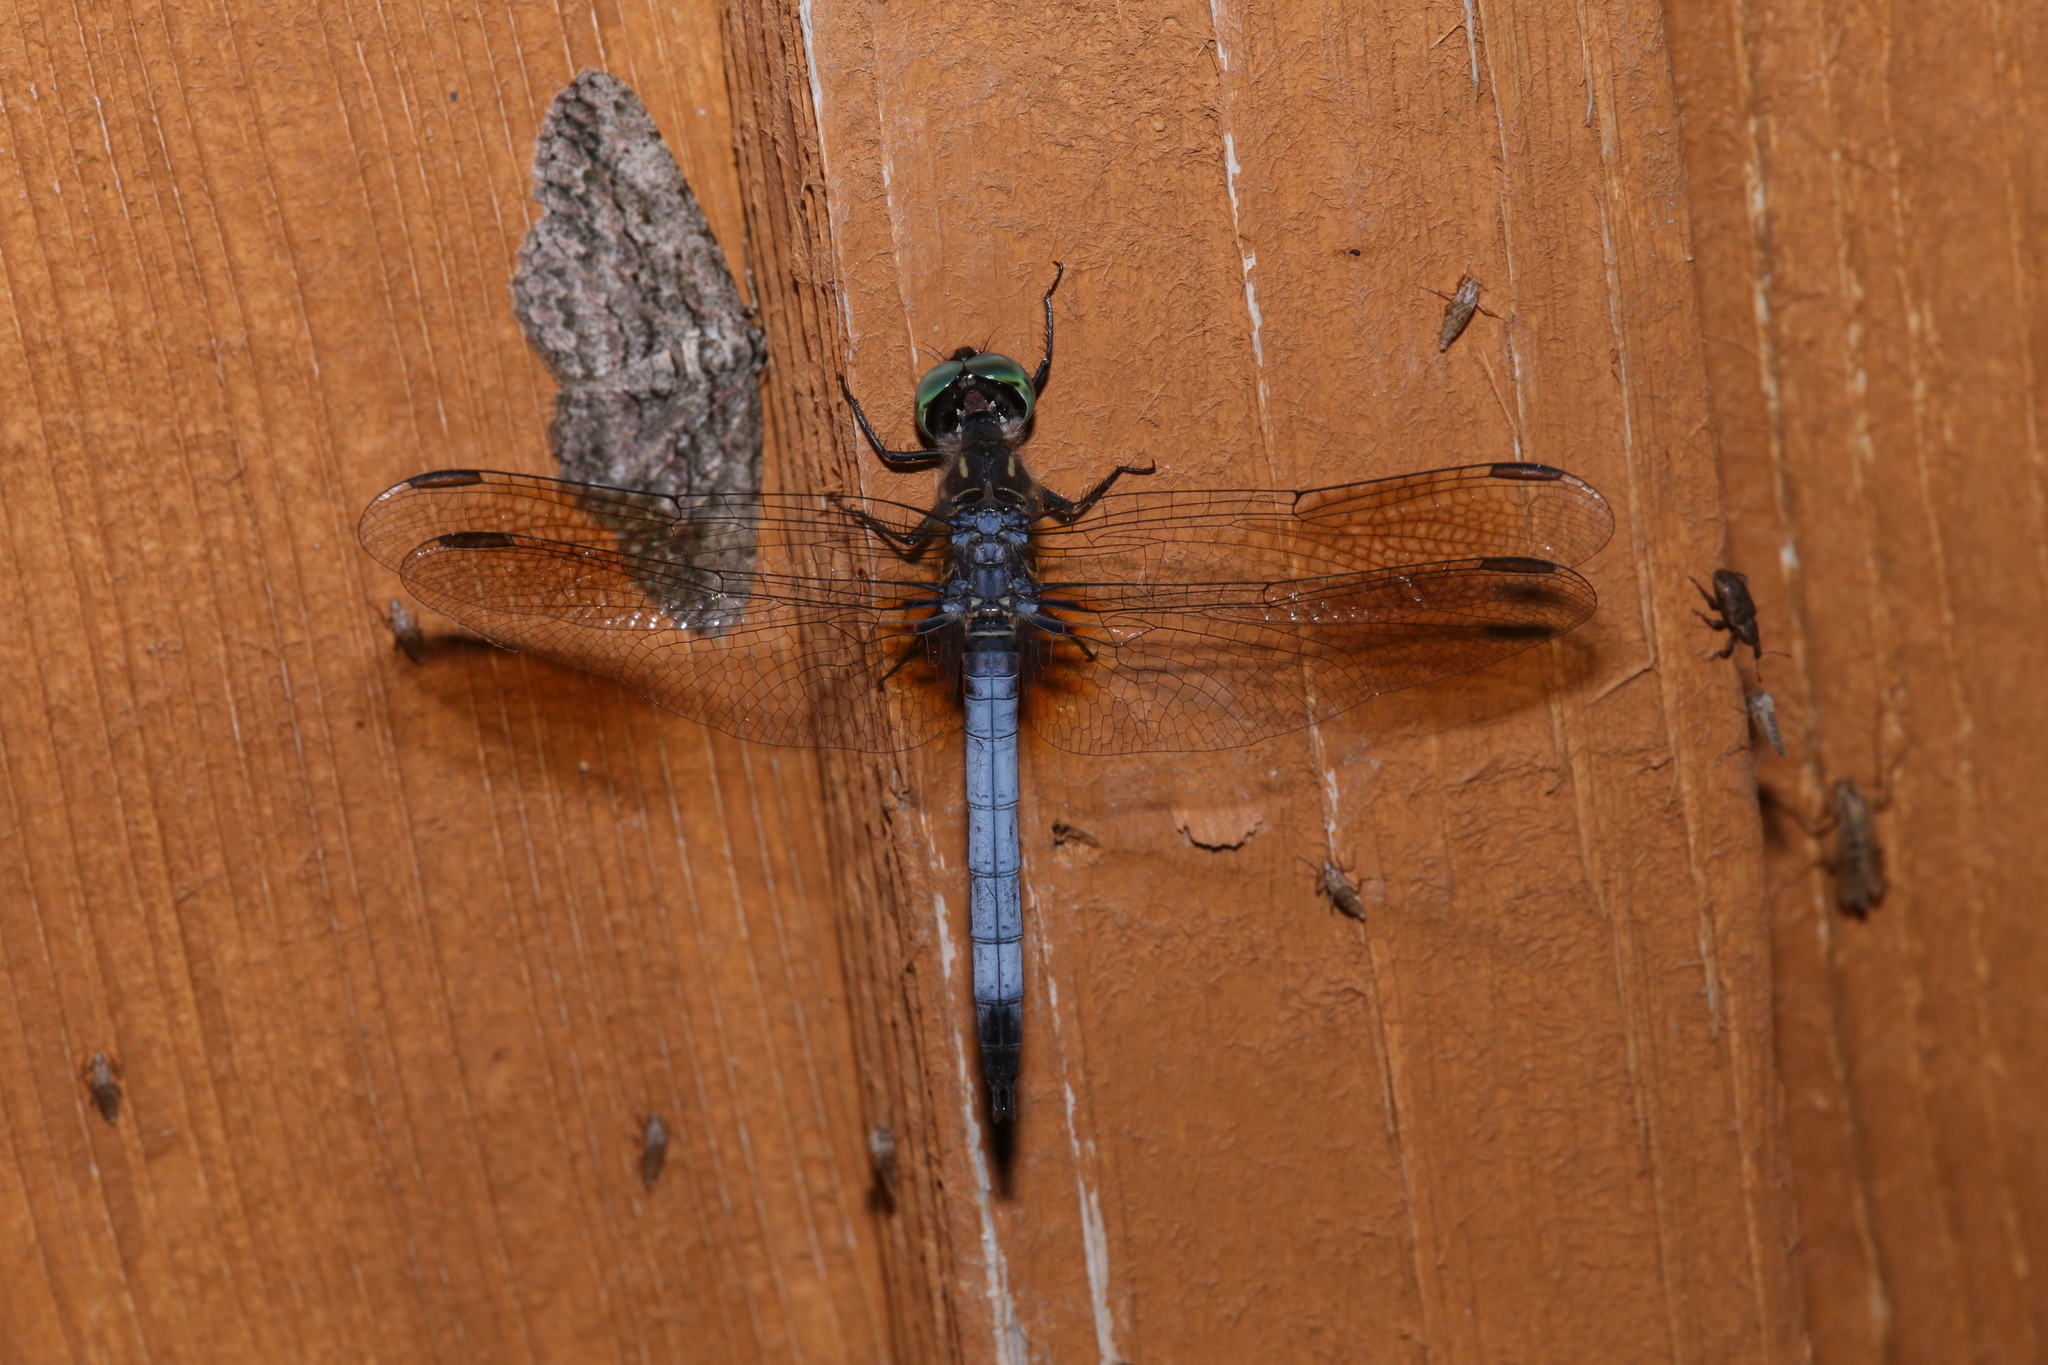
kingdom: Animalia
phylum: Arthropoda
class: Insecta
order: Odonata
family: Libellulidae
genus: Pachydiplax
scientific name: Pachydiplax longipennis
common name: Blue dasher
